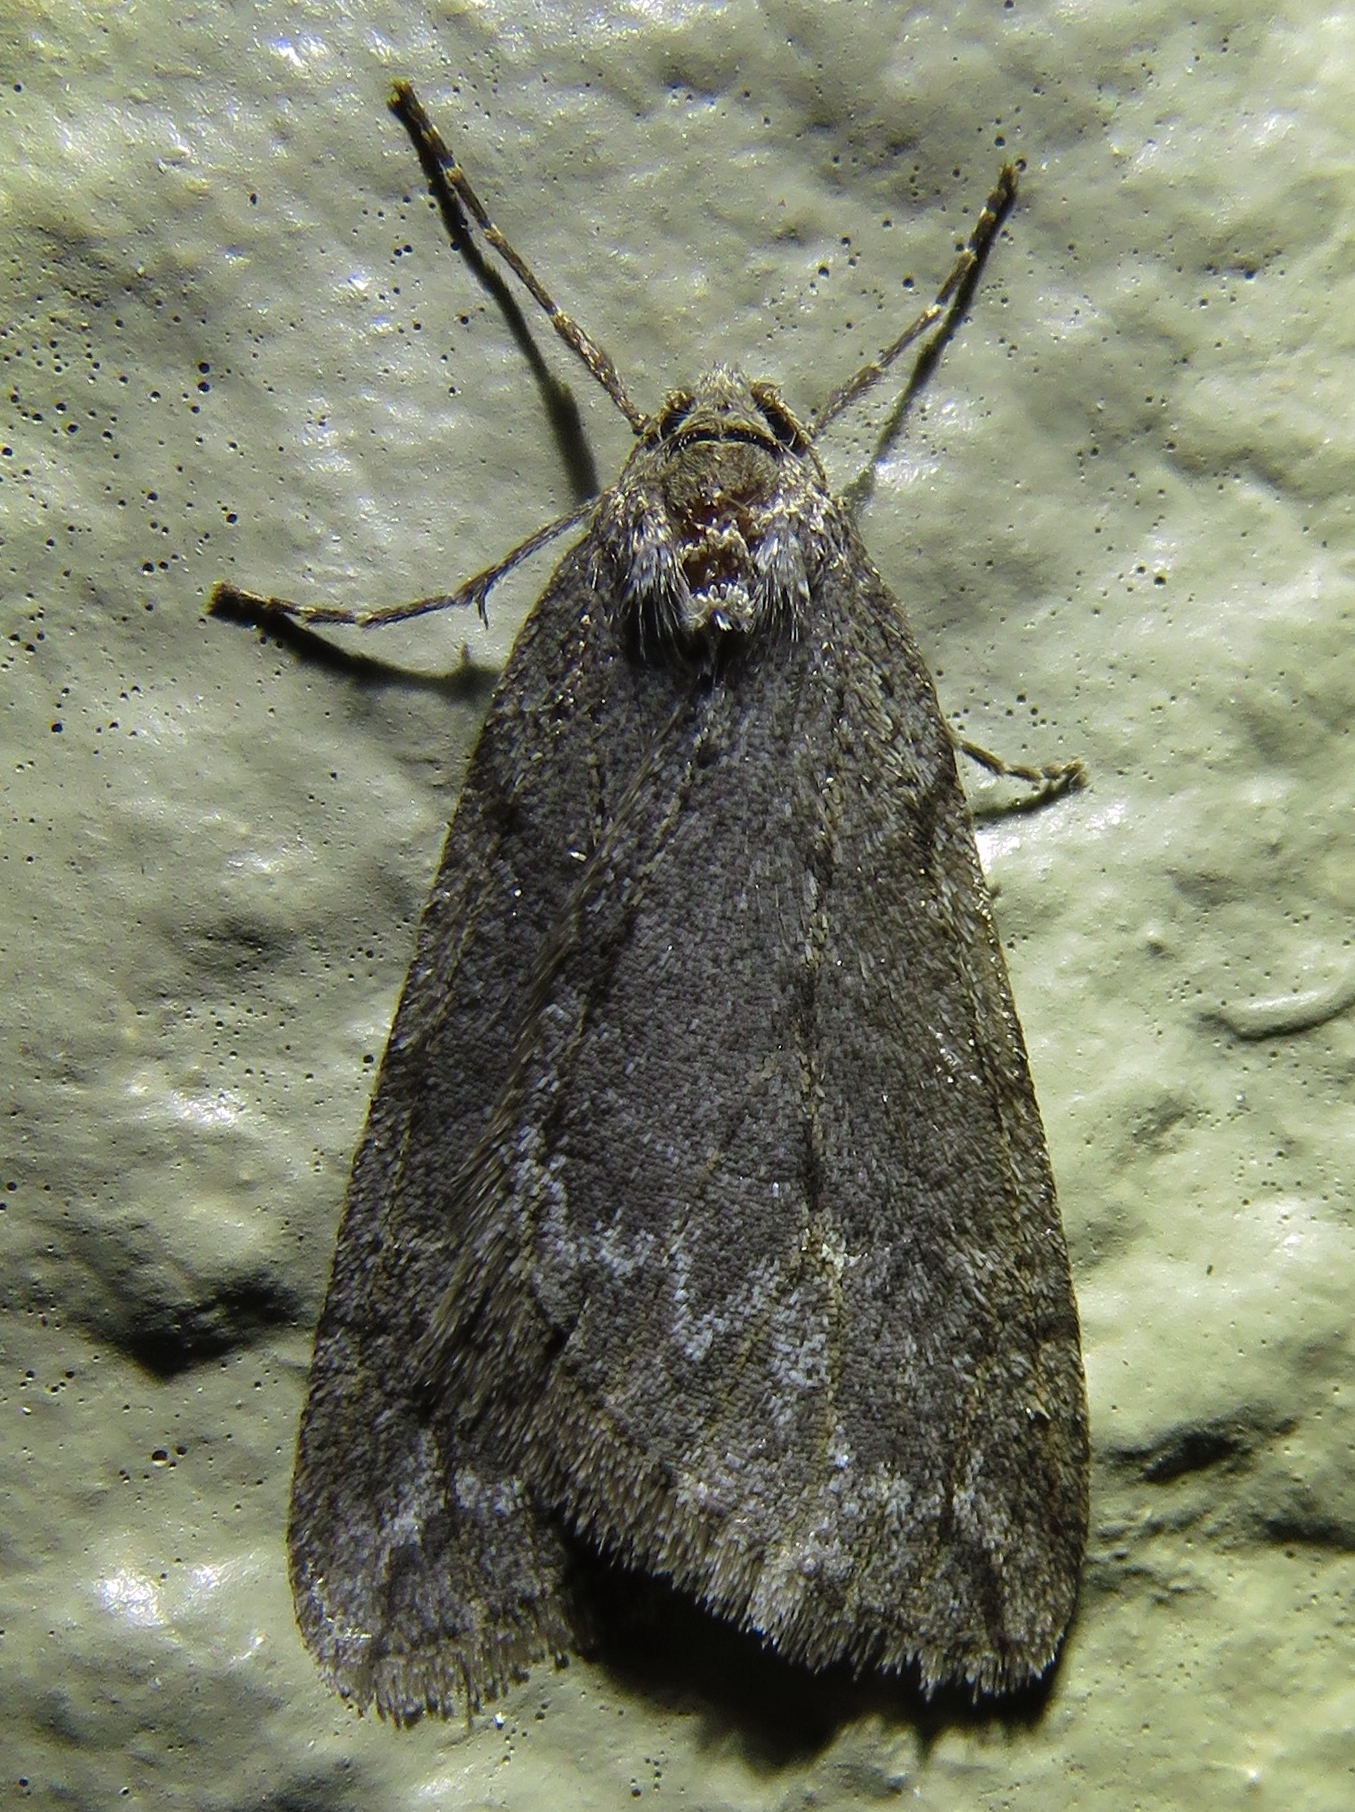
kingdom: Animalia
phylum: Arthropoda
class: Insecta
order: Lepidoptera
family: Geometridae
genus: Paleacrita
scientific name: Paleacrita vernata
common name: Spring cankerworm
